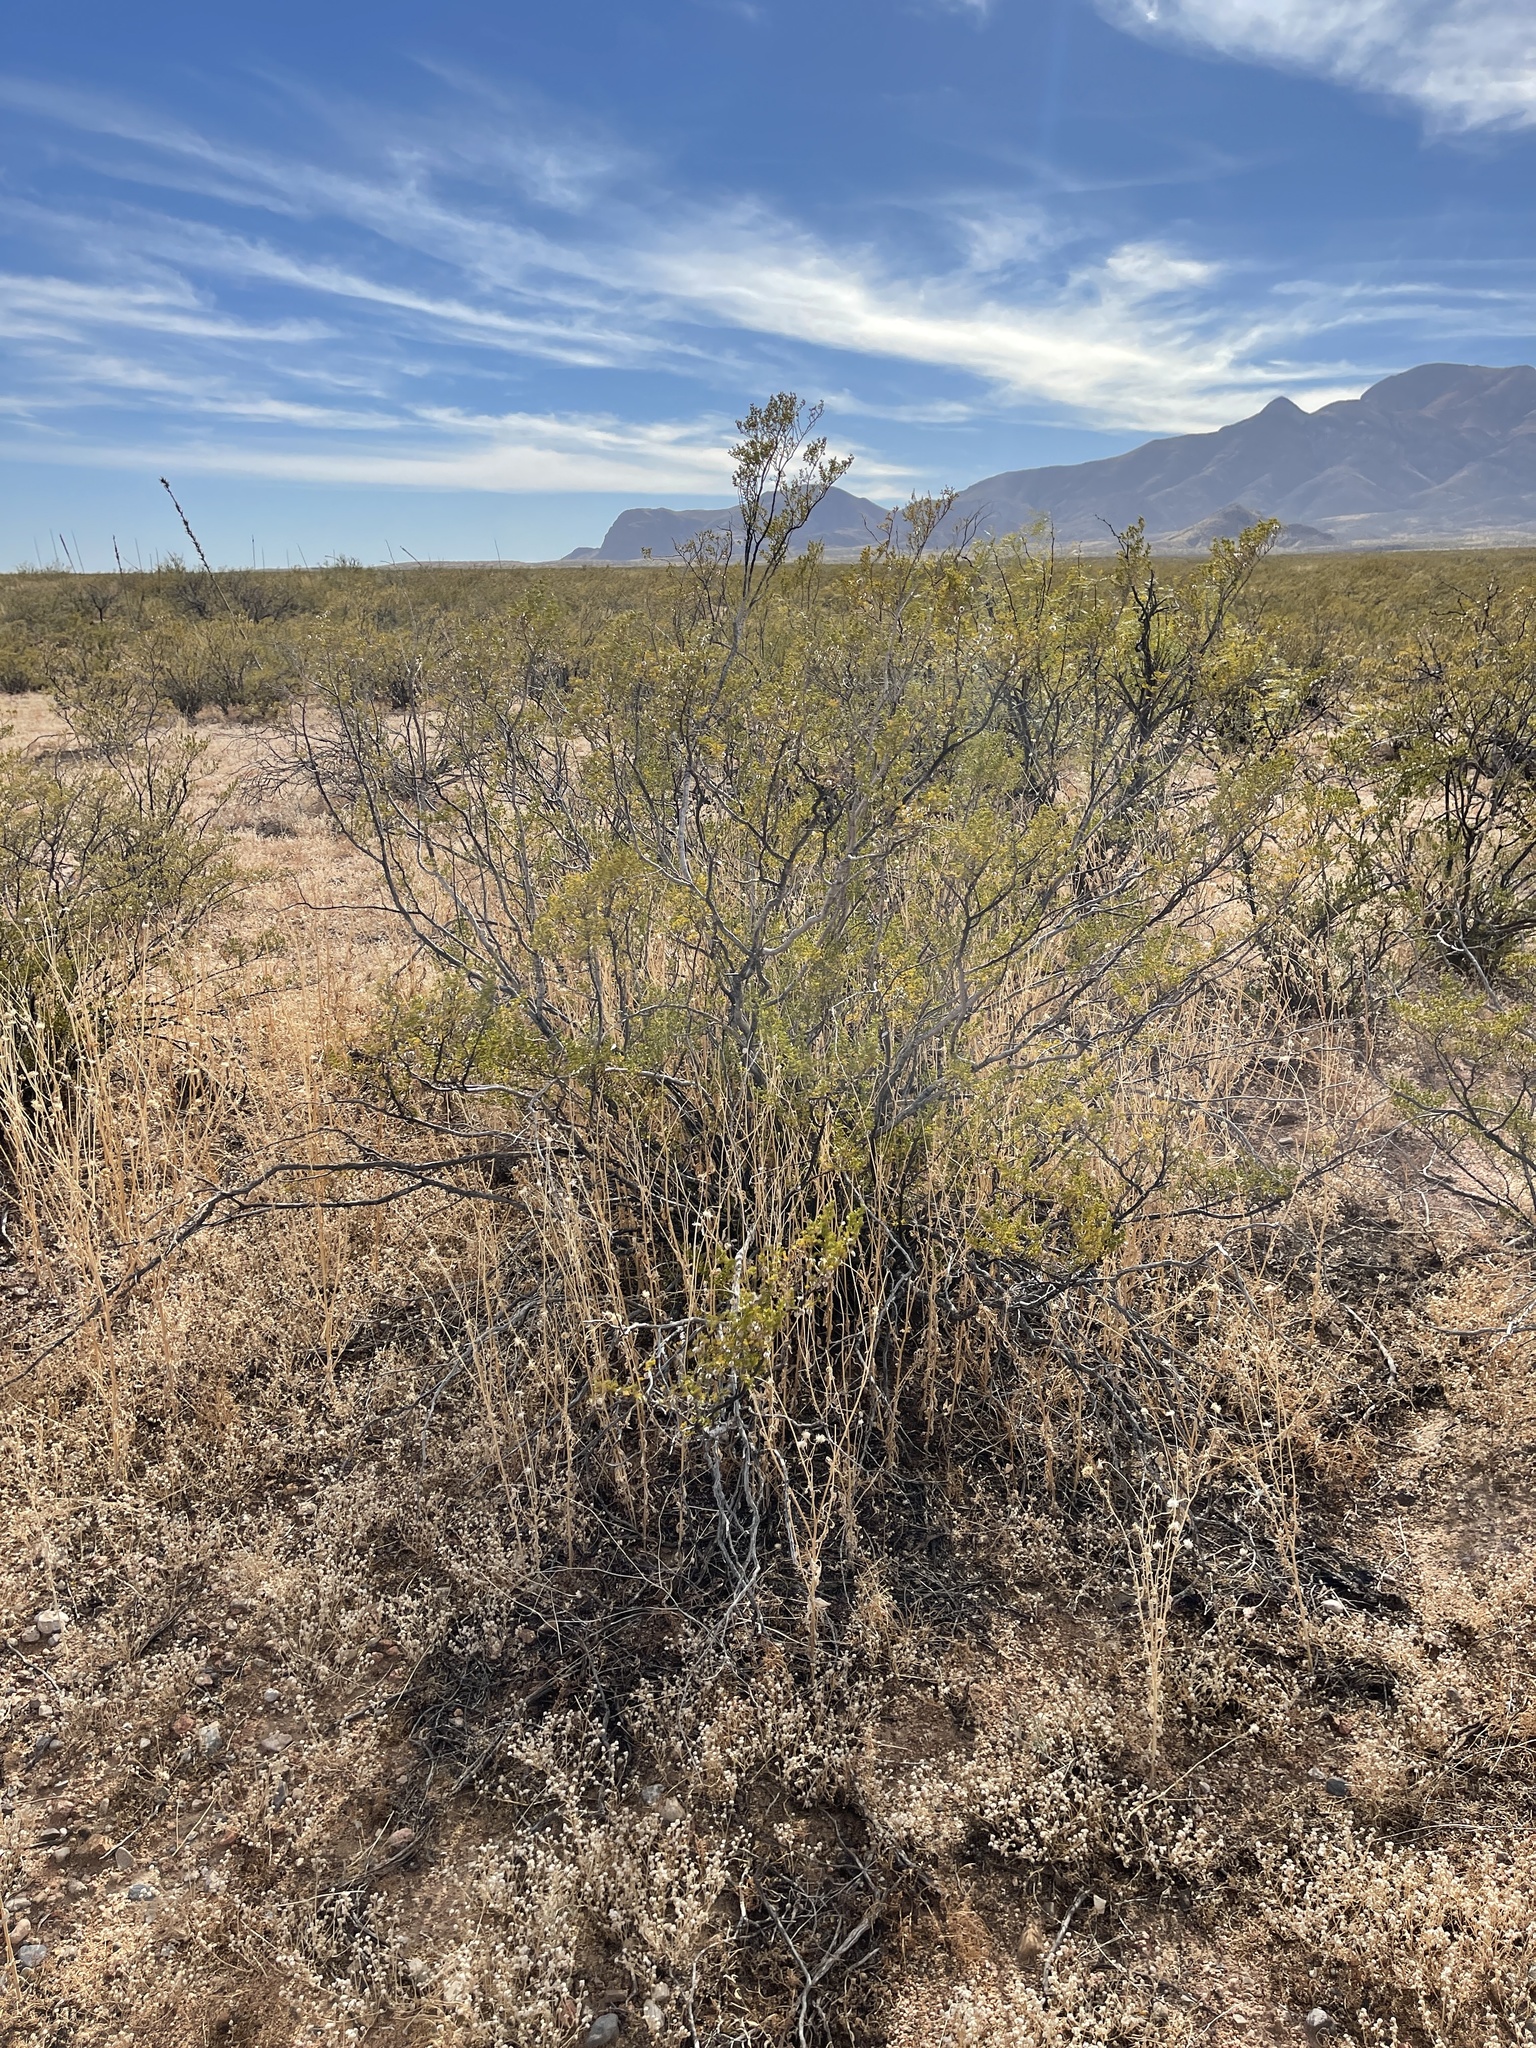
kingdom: Plantae
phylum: Tracheophyta
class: Magnoliopsida
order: Zygophyllales
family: Zygophyllaceae
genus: Larrea
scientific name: Larrea tridentata
